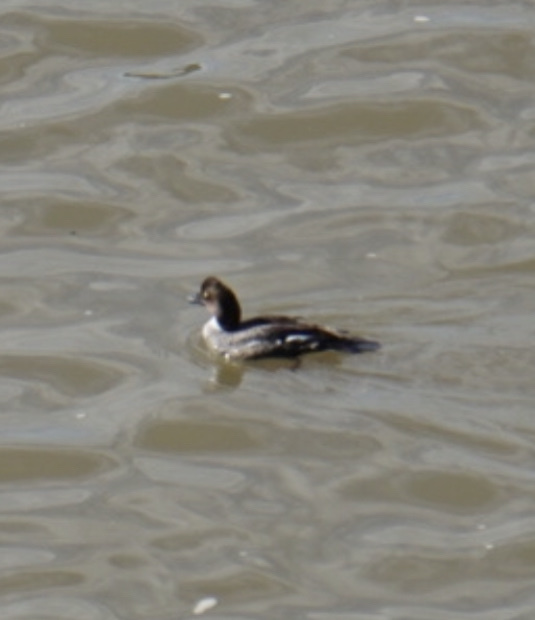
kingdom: Animalia
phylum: Chordata
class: Aves
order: Anseriformes
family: Anatidae
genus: Bucephala
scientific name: Bucephala clangula
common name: Common goldeneye
